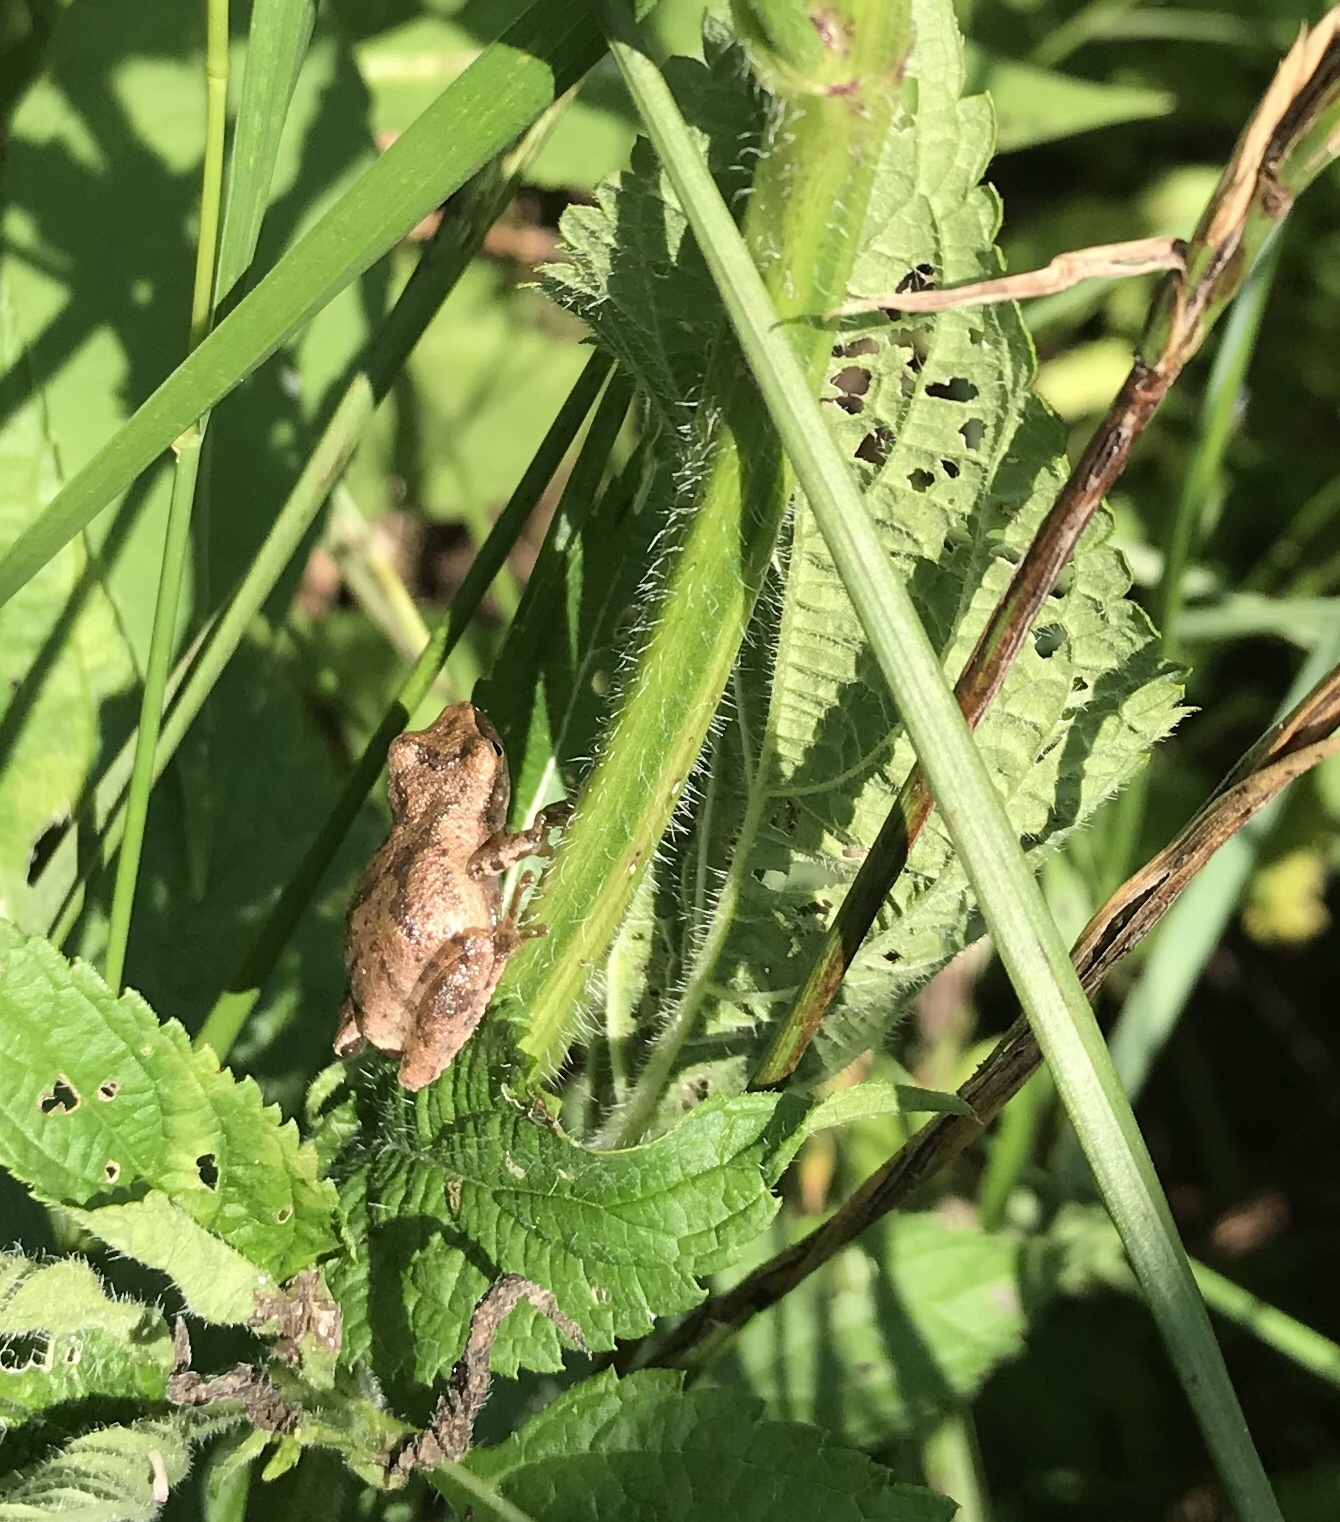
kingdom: Animalia
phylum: Chordata
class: Amphibia
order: Anura
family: Hylidae
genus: Pseudacris
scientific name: Pseudacris crucifer
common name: Spring peeper
